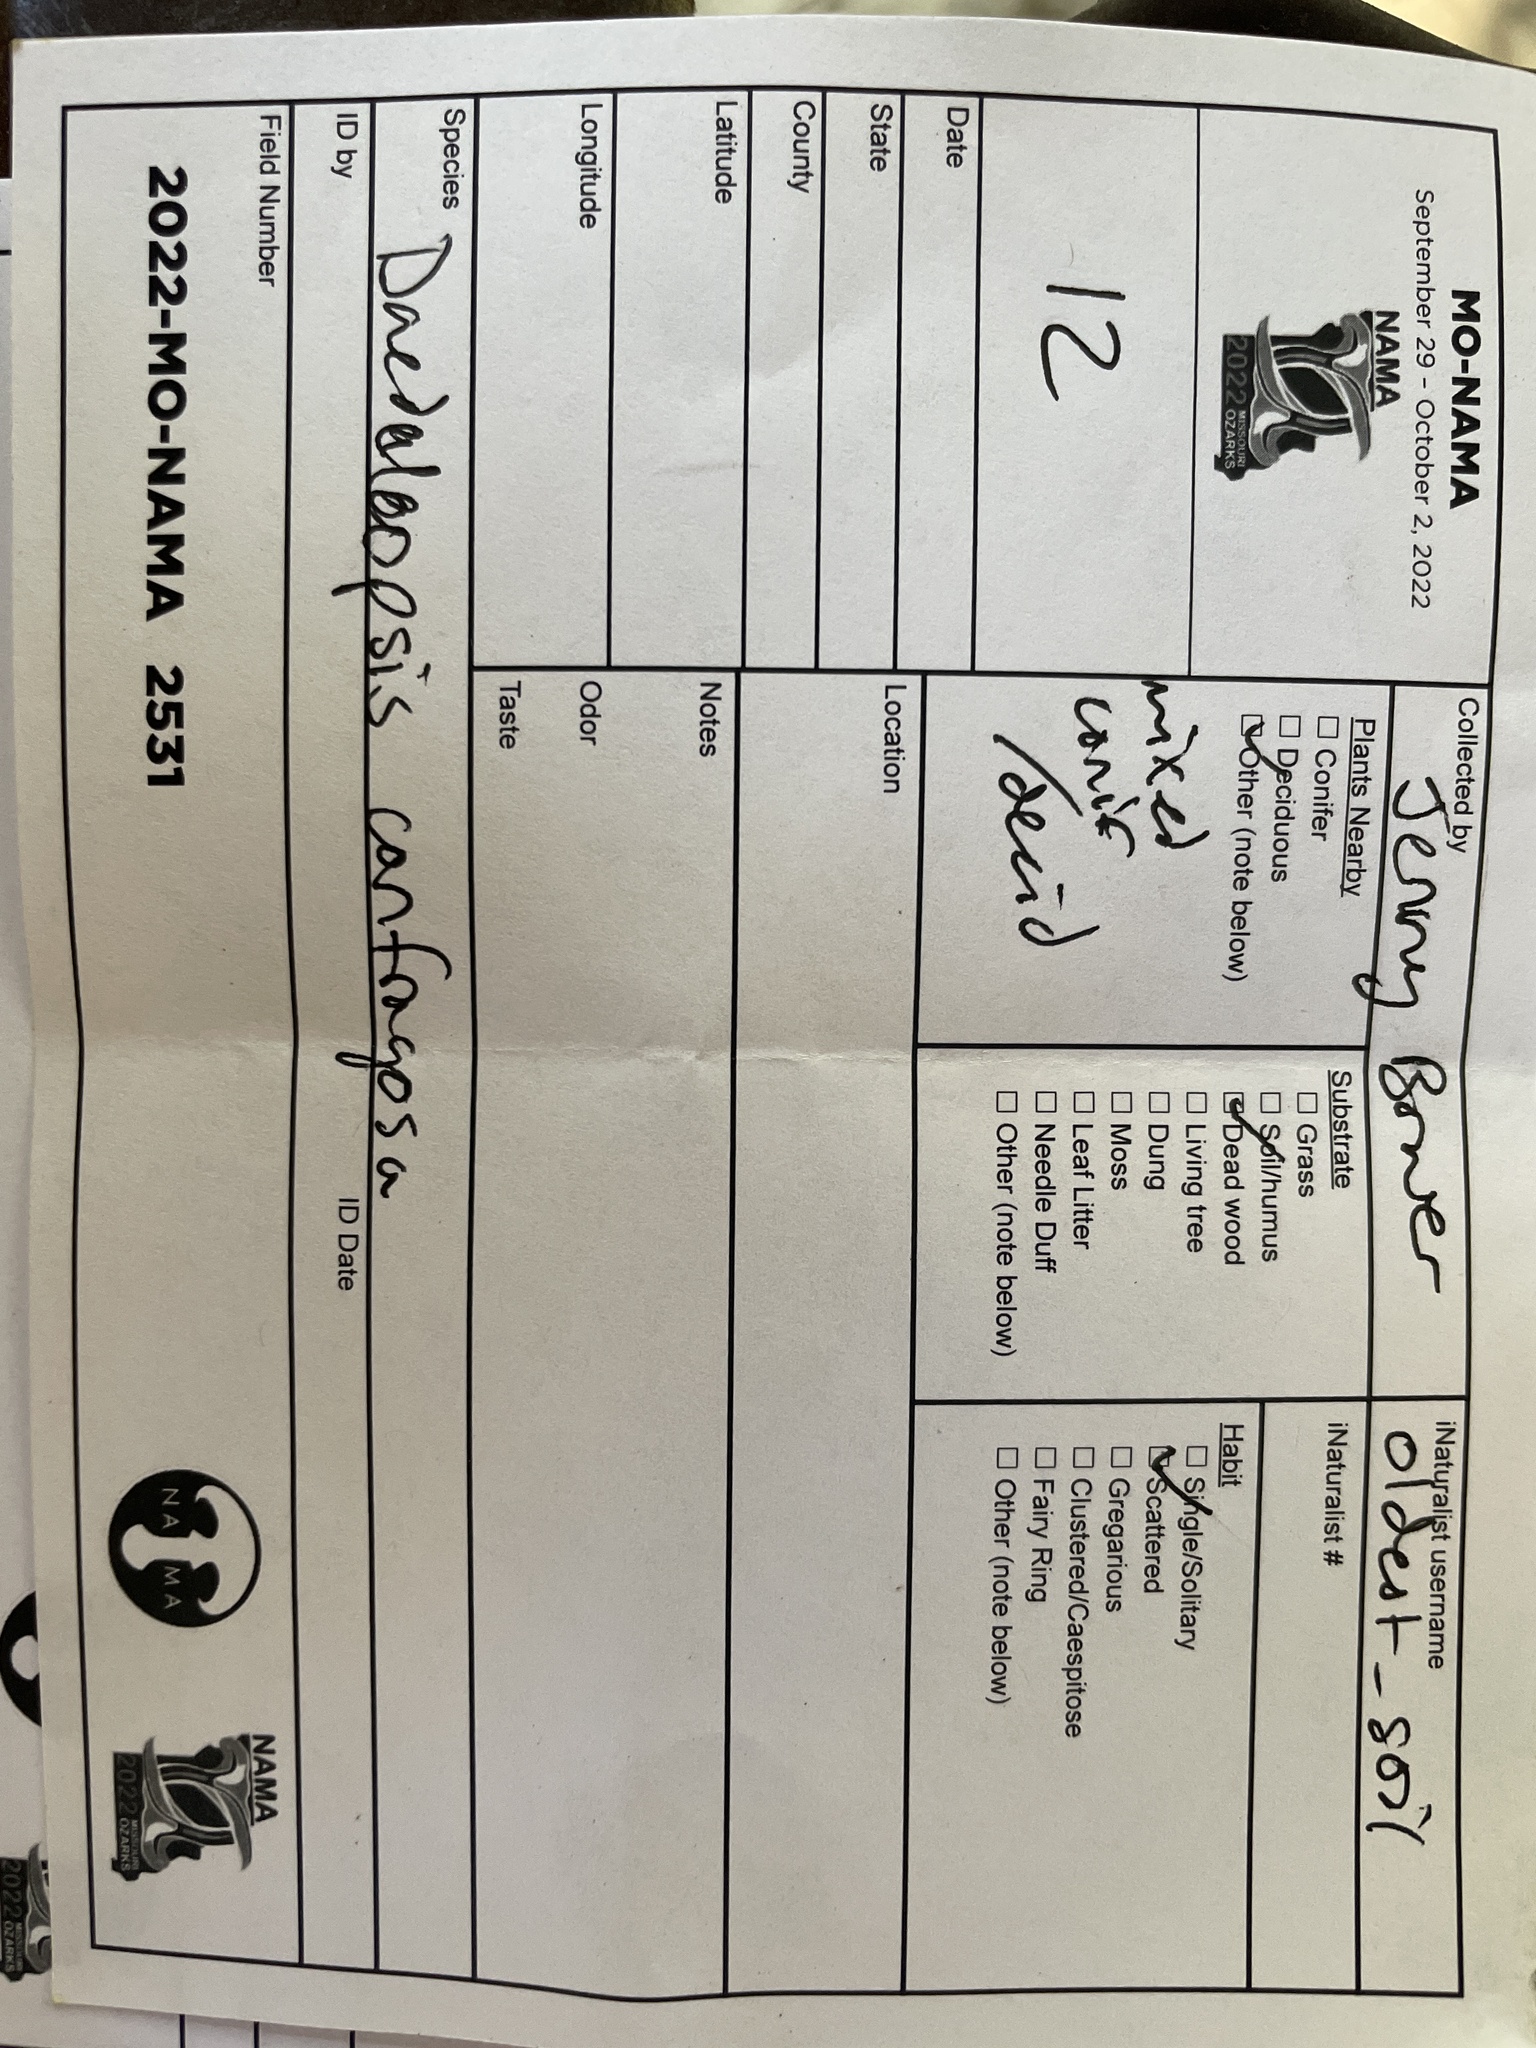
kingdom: Fungi
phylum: Basidiomycota
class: Agaricomycetes
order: Polyporales
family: Polyporaceae
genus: Daedaleopsis
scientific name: Daedaleopsis confragosa
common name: Blushing bracket
